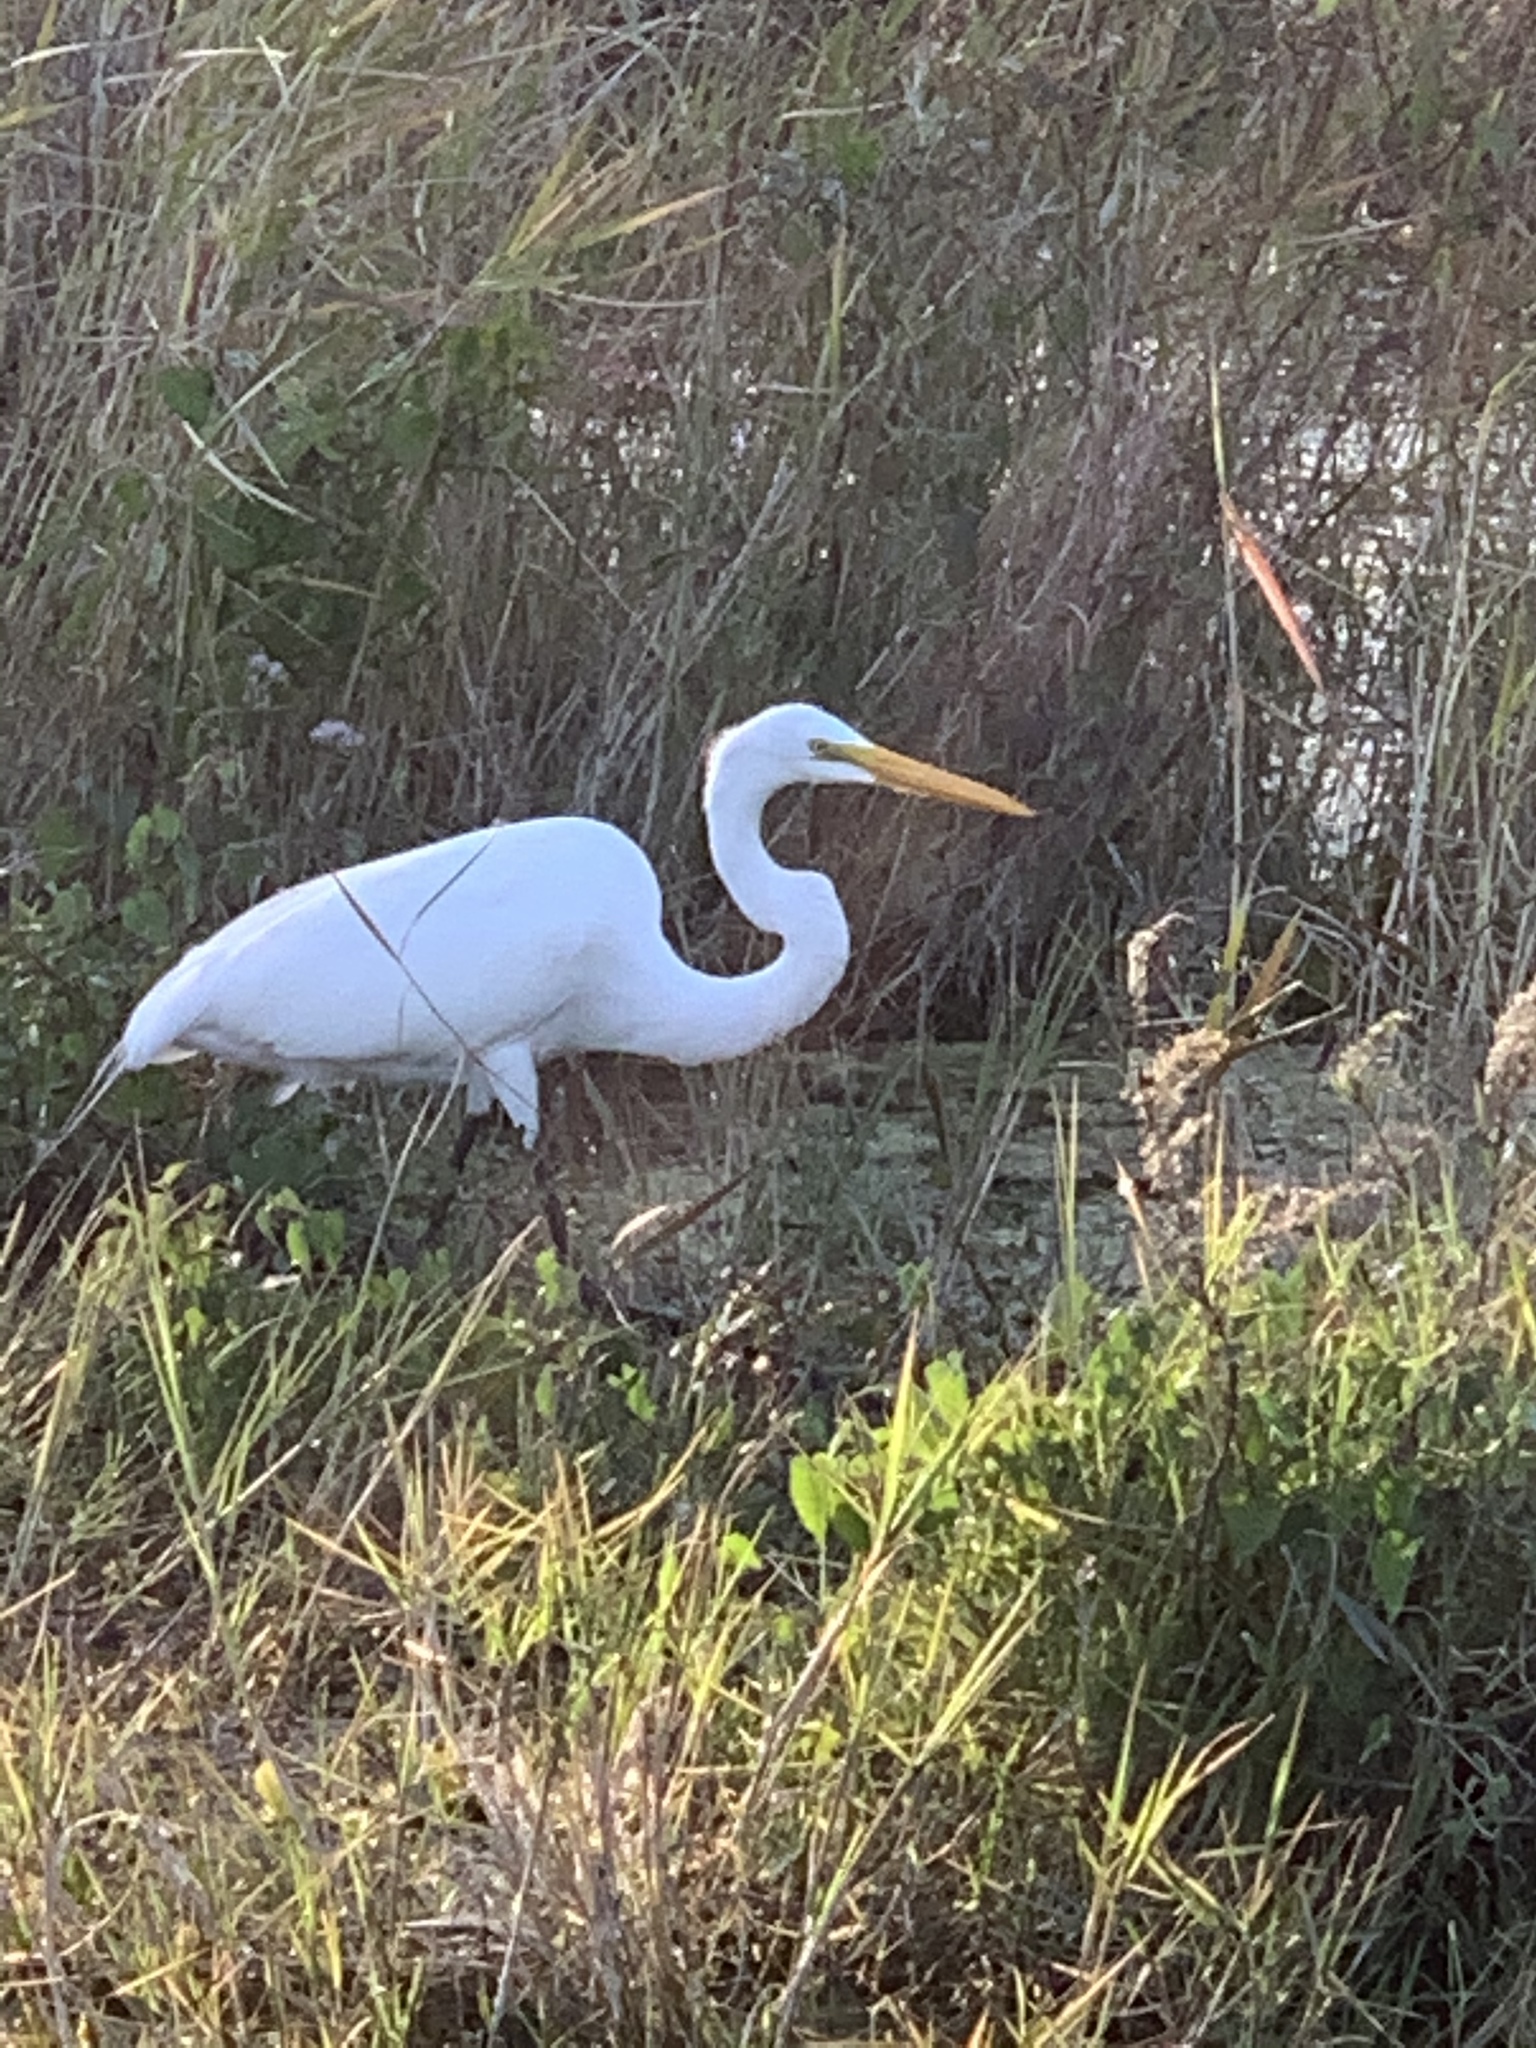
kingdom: Animalia
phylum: Chordata
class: Aves
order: Pelecaniformes
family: Ardeidae
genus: Ardea
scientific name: Ardea alba
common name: Great egret
